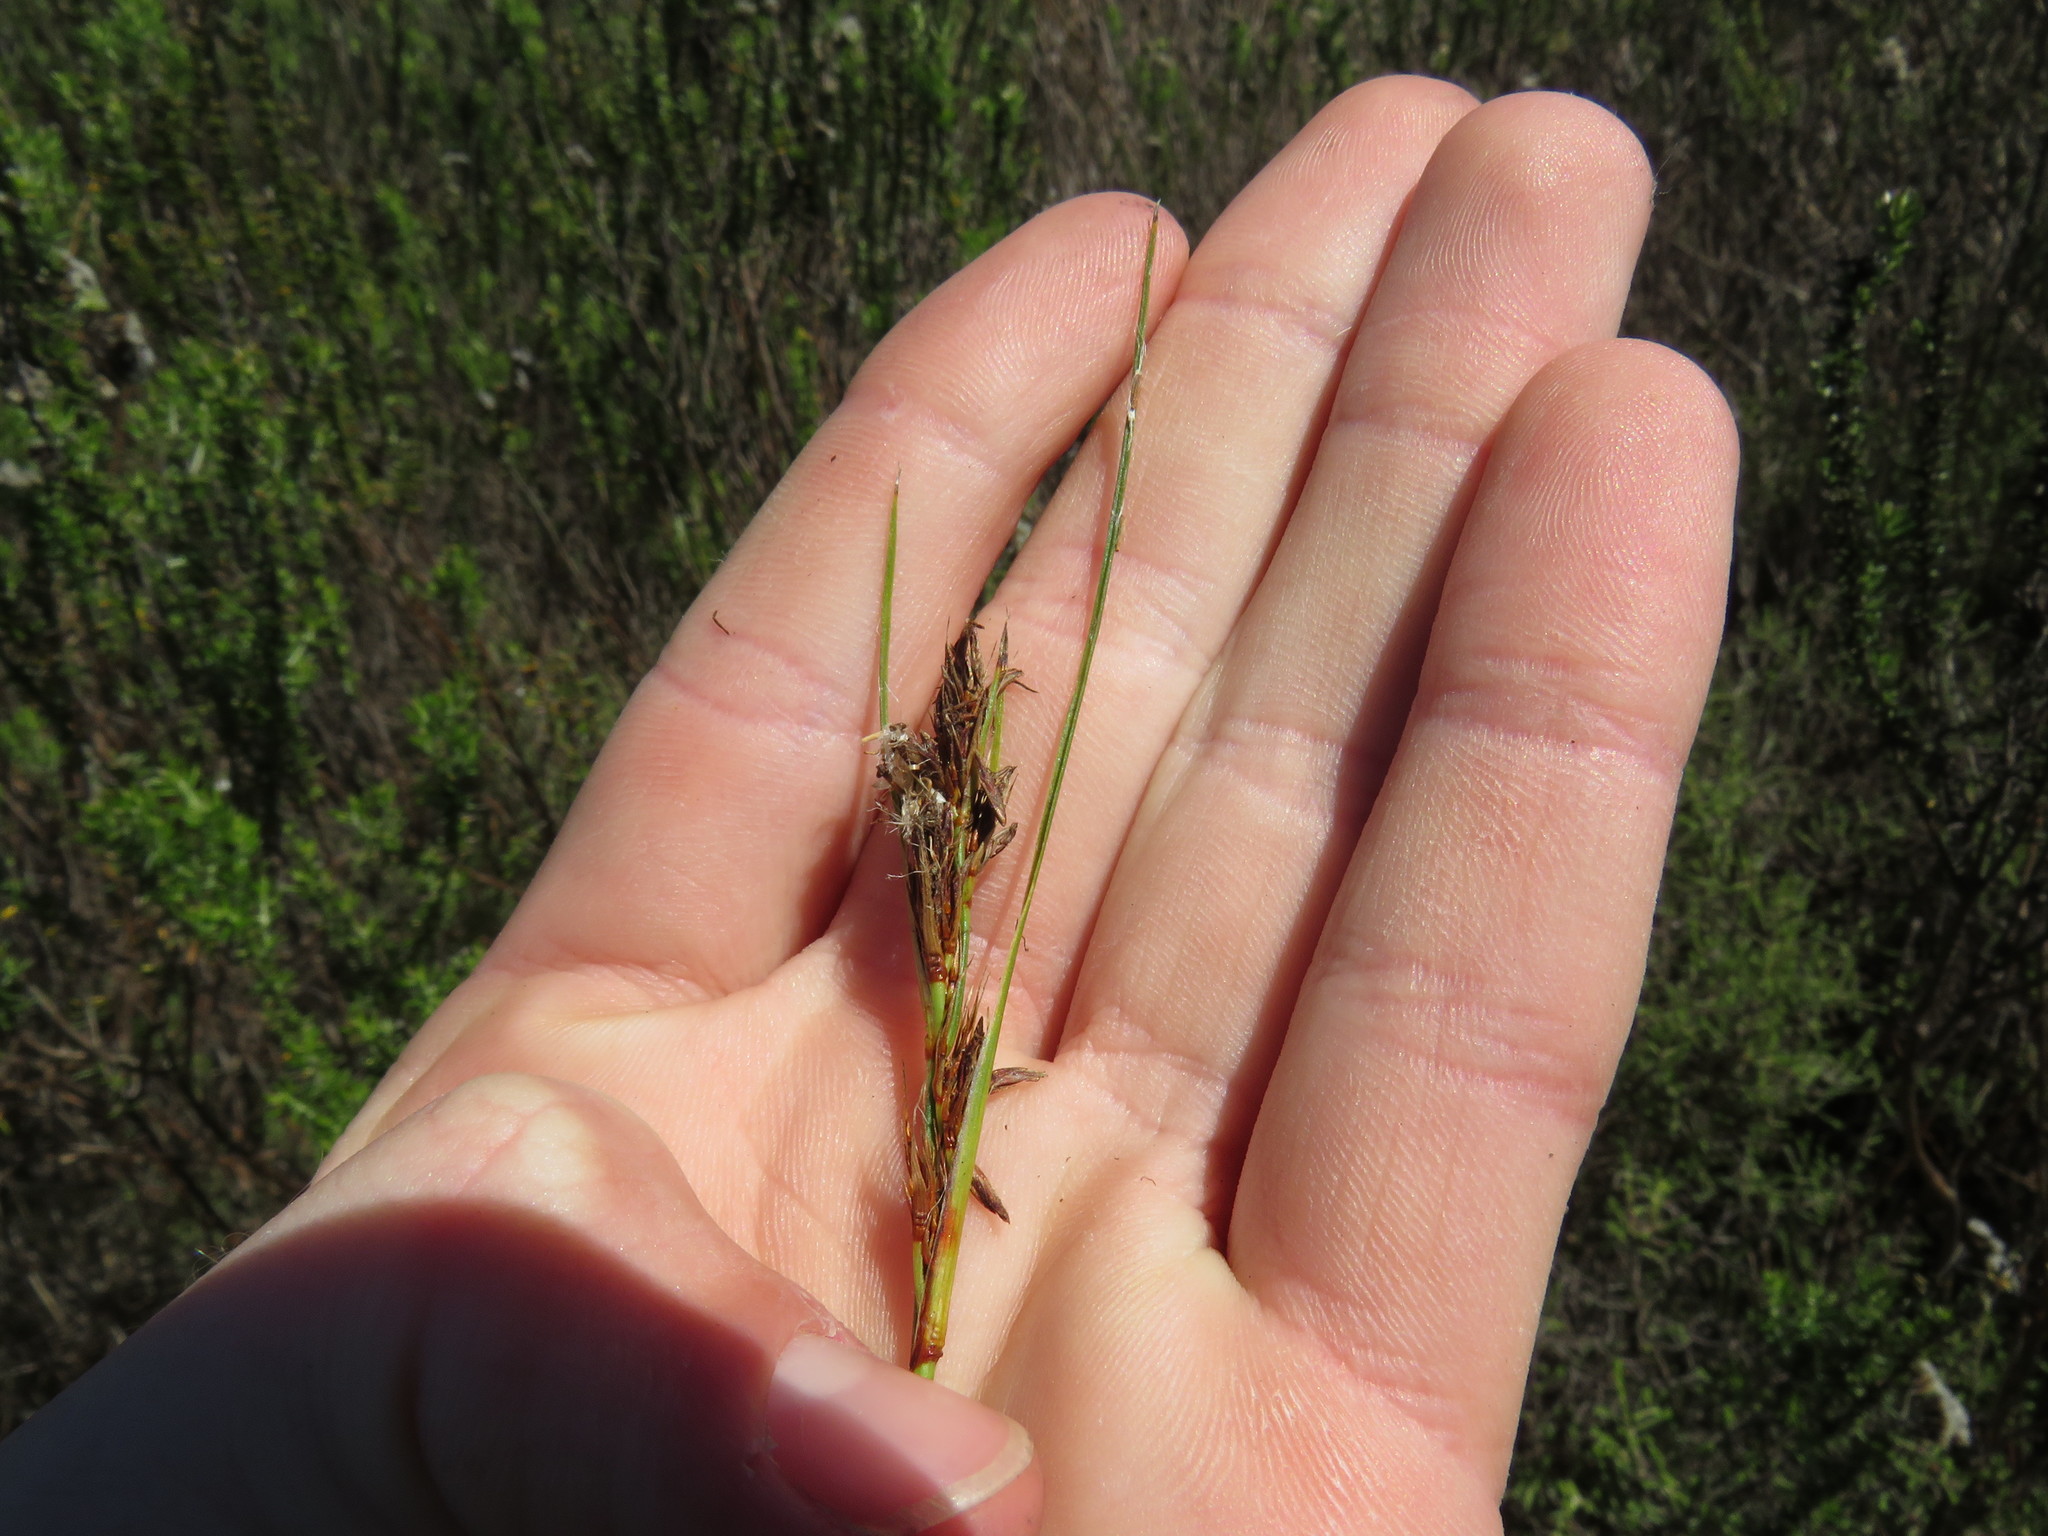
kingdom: Plantae
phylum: Tracheophyta
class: Liliopsida
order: Poales
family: Cyperaceae
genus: Schoenus
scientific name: Schoenus auritus
